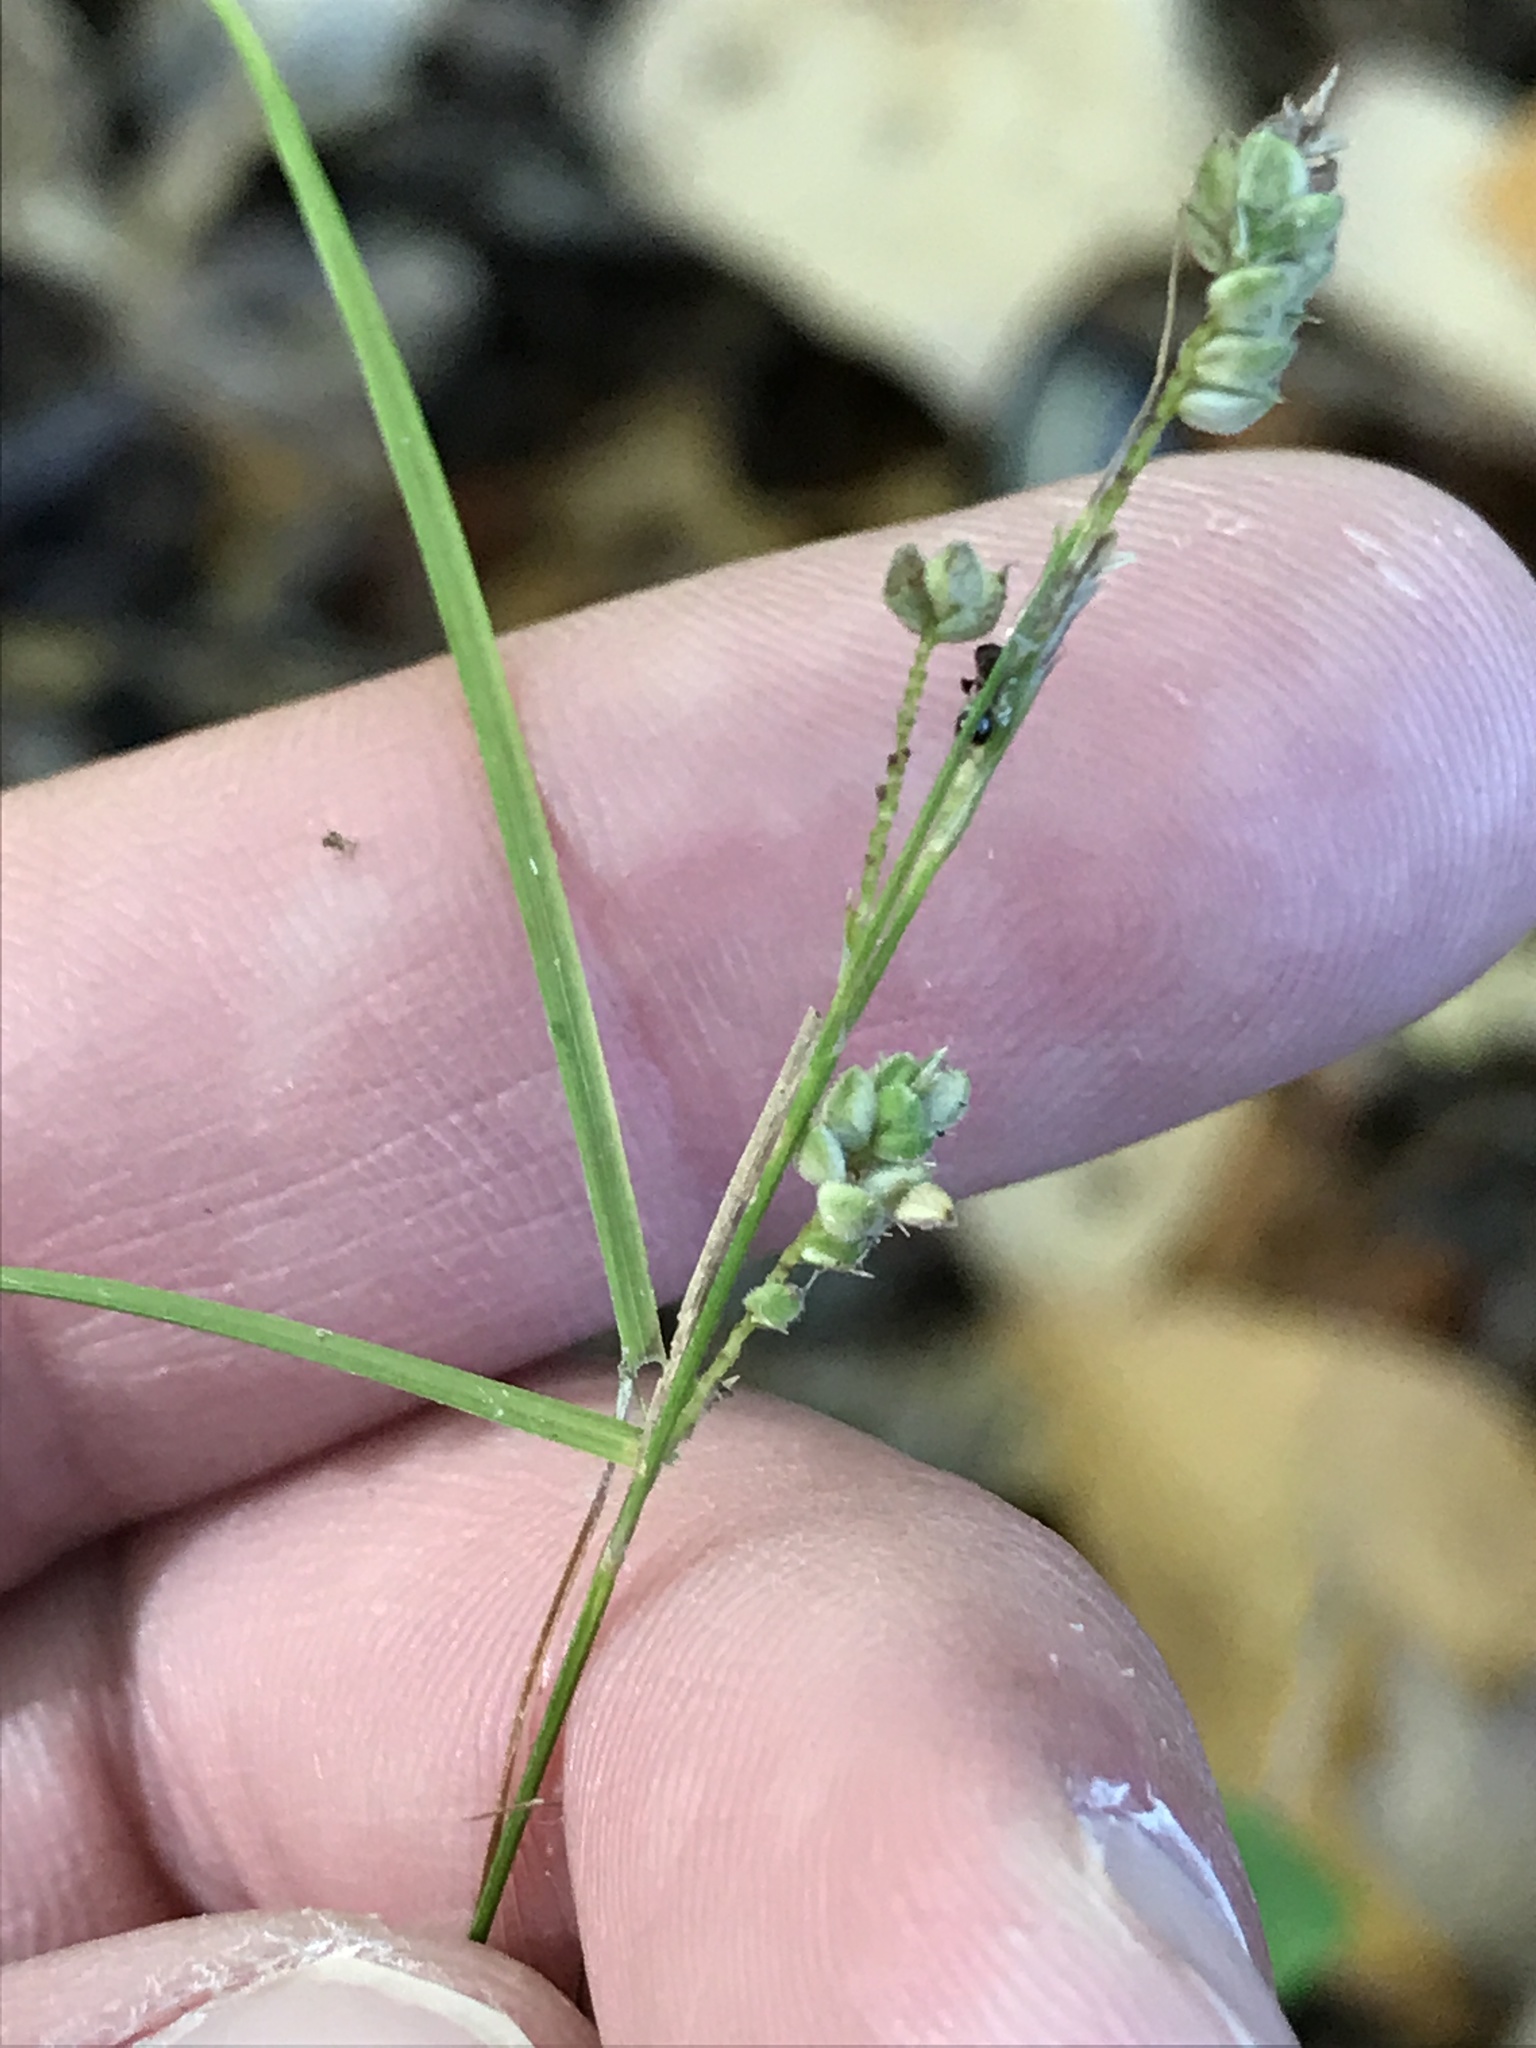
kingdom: Plantae
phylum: Tracheophyta
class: Liliopsida
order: Poales
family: Cyperaceae
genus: Carex
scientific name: Carex swanii
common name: Downy green sedge
